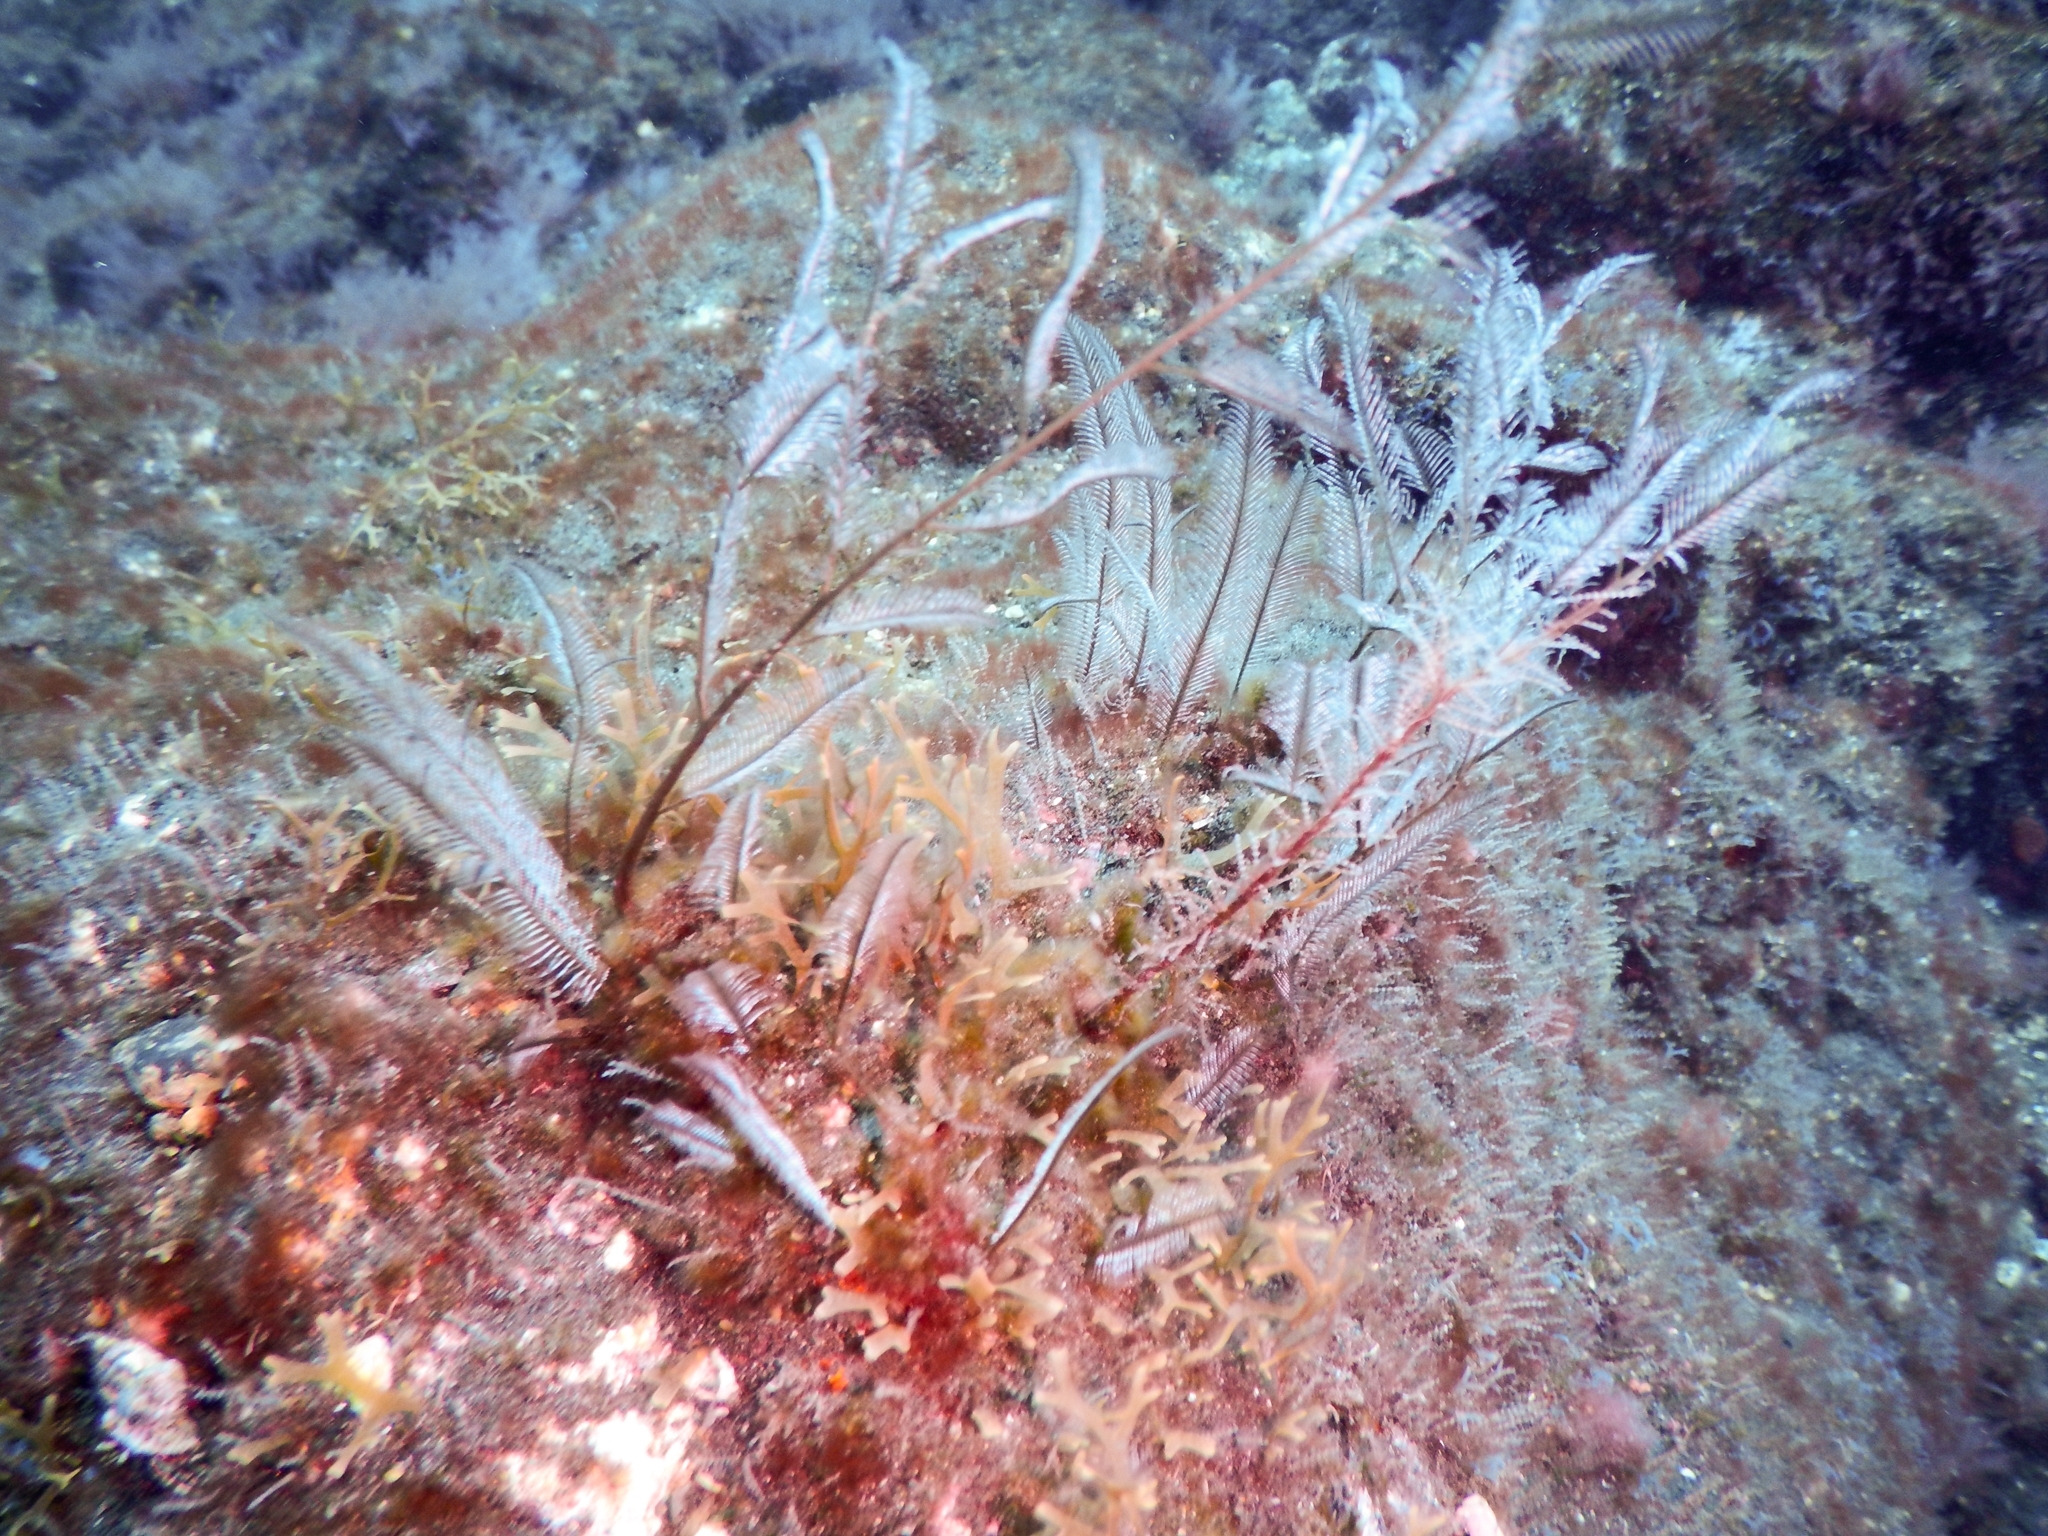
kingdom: Animalia
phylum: Cnidaria
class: Hydrozoa
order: Leptothecata
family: Aglaopheniidae
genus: Macrorhynchia
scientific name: Macrorhynchia philippina
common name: Stinging hydroid
